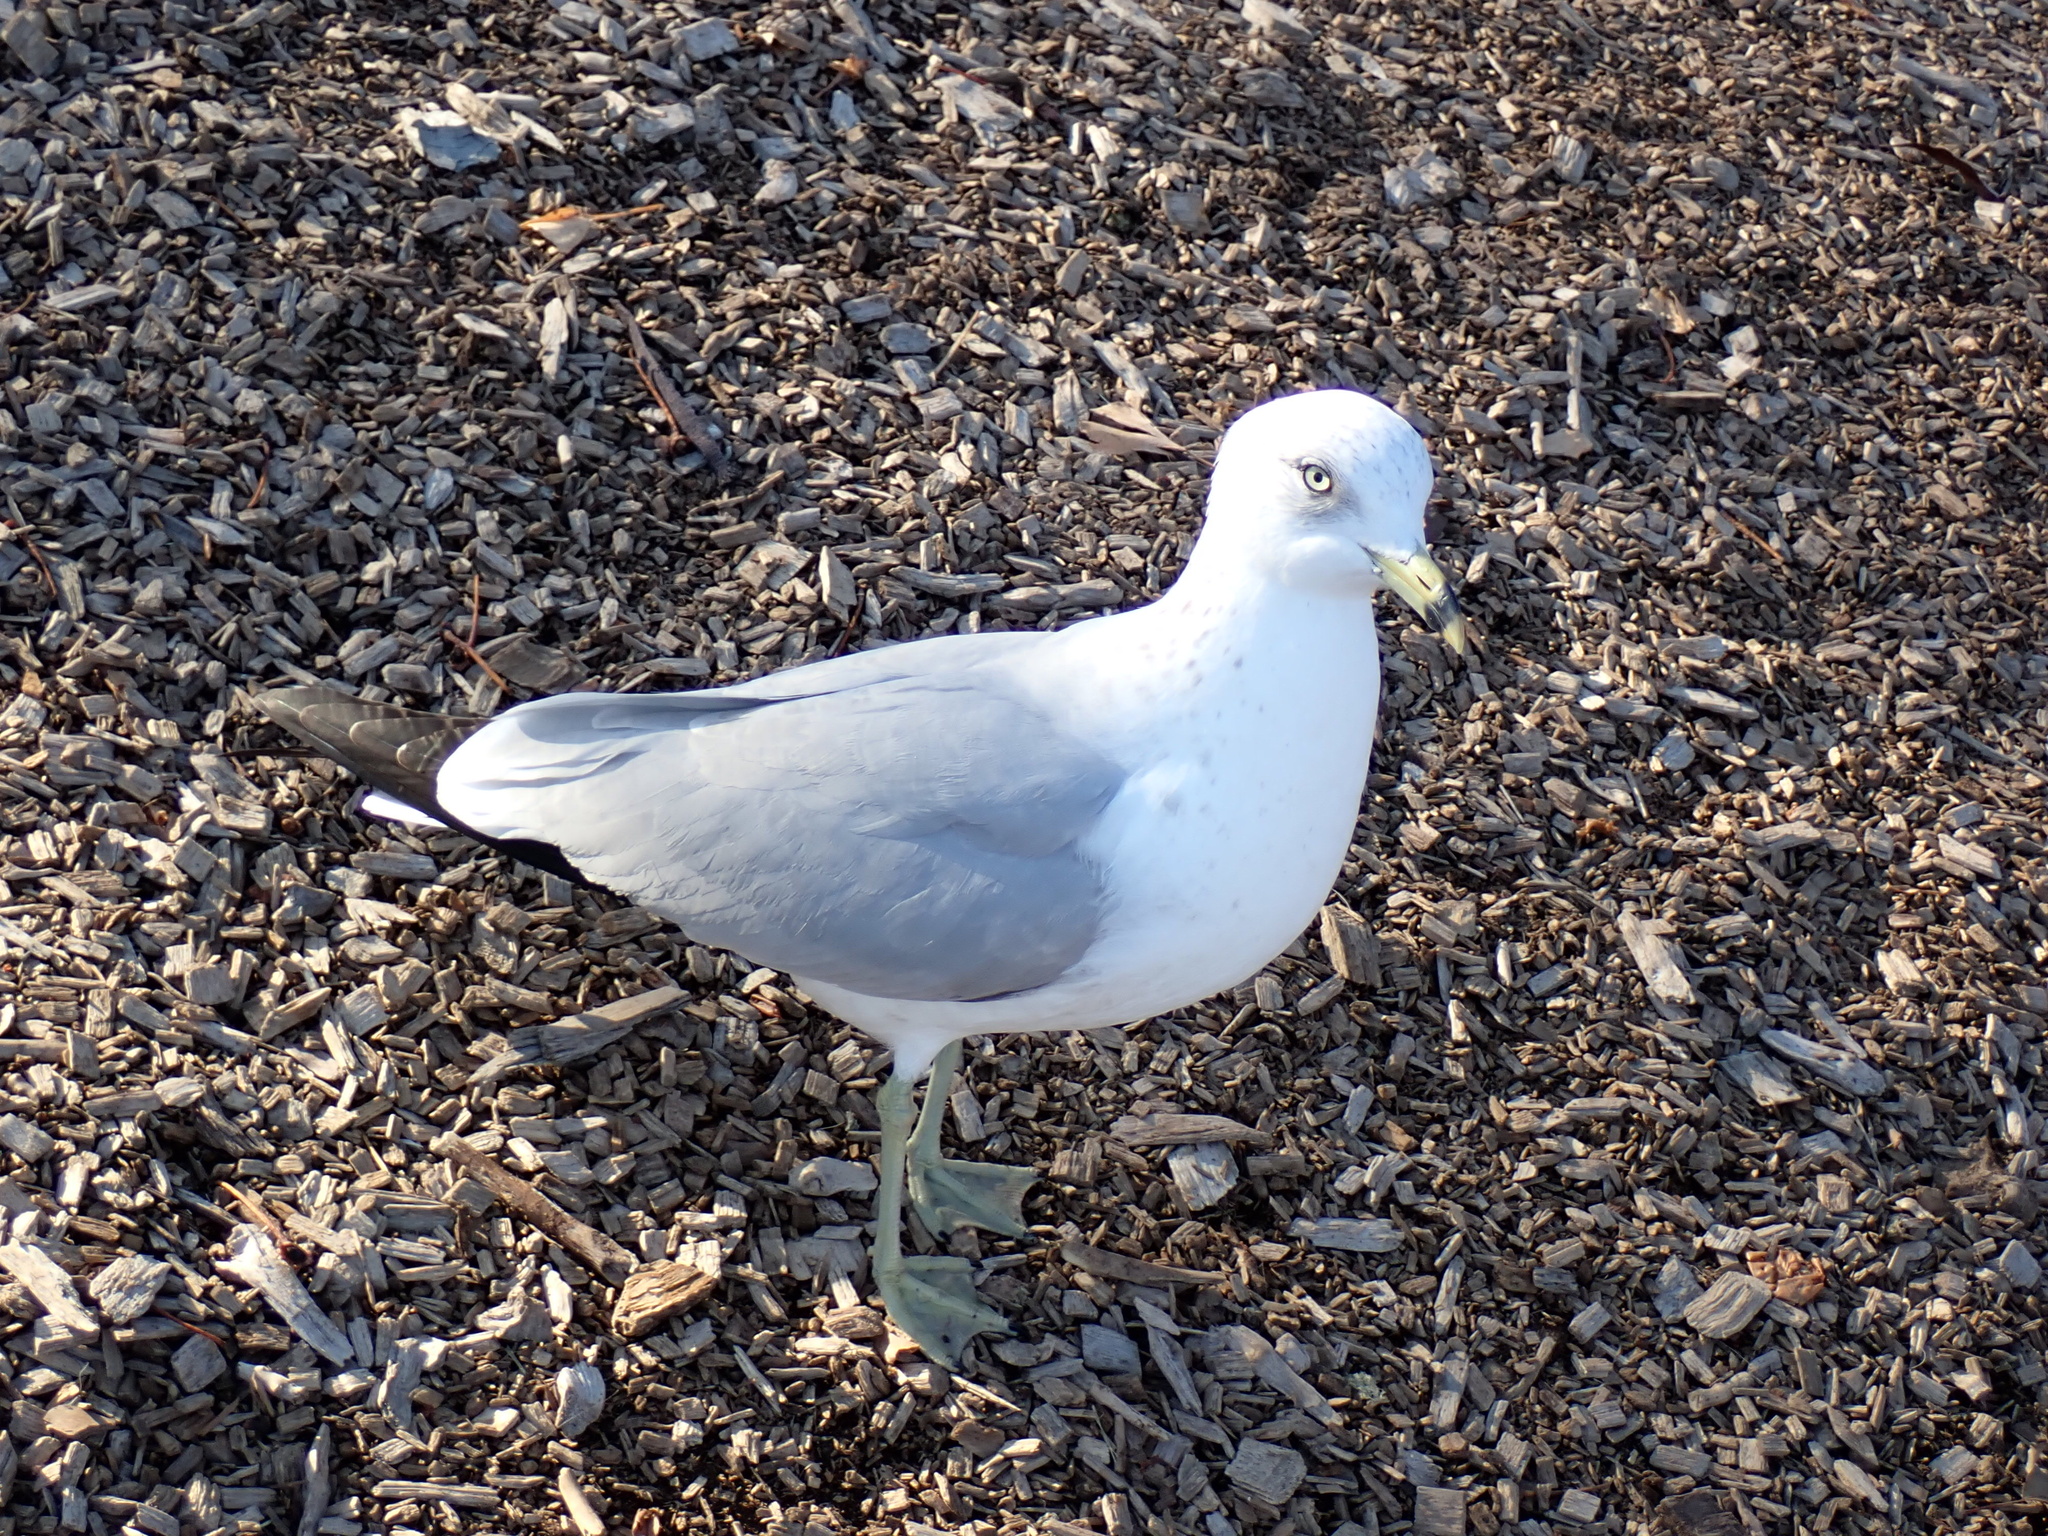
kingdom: Animalia
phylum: Chordata
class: Aves
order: Charadriiformes
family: Laridae
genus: Larus
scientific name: Larus delawarensis
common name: Ring-billed gull
